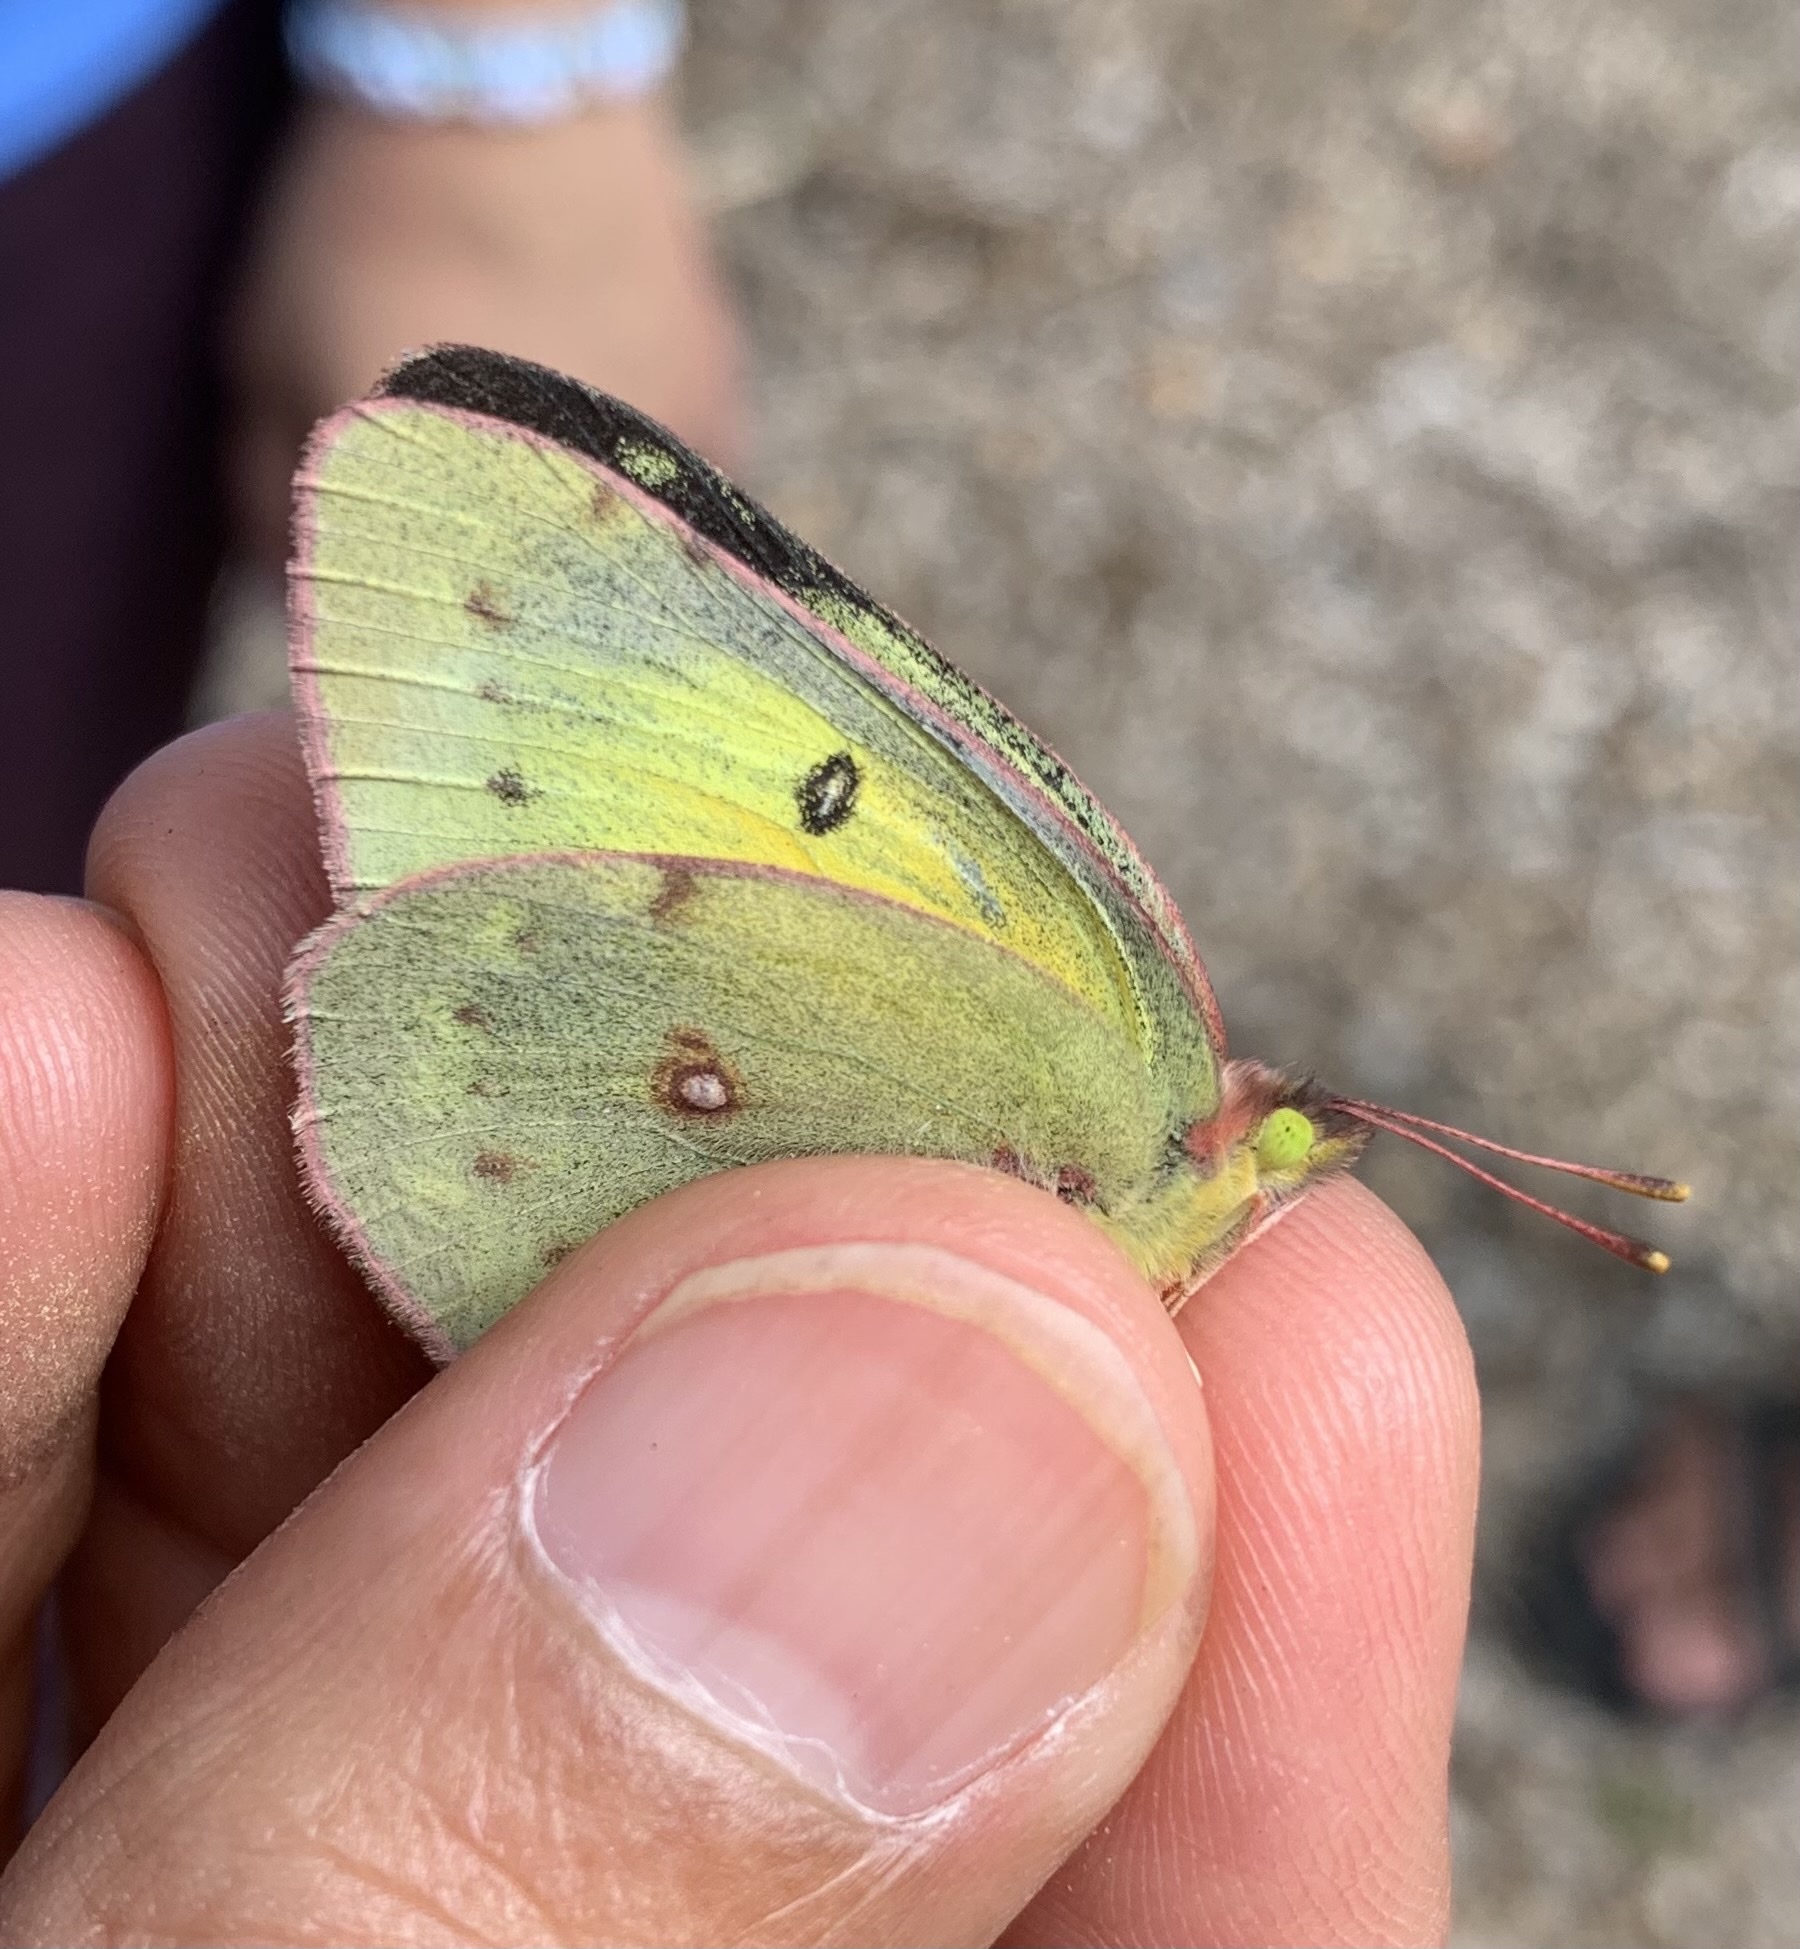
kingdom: Animalia
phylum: Arthropoda
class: Insecta
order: Lepidoptera
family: Pieridae
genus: Colias
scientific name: Colias eurytheme
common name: Alfalfa butterfly
